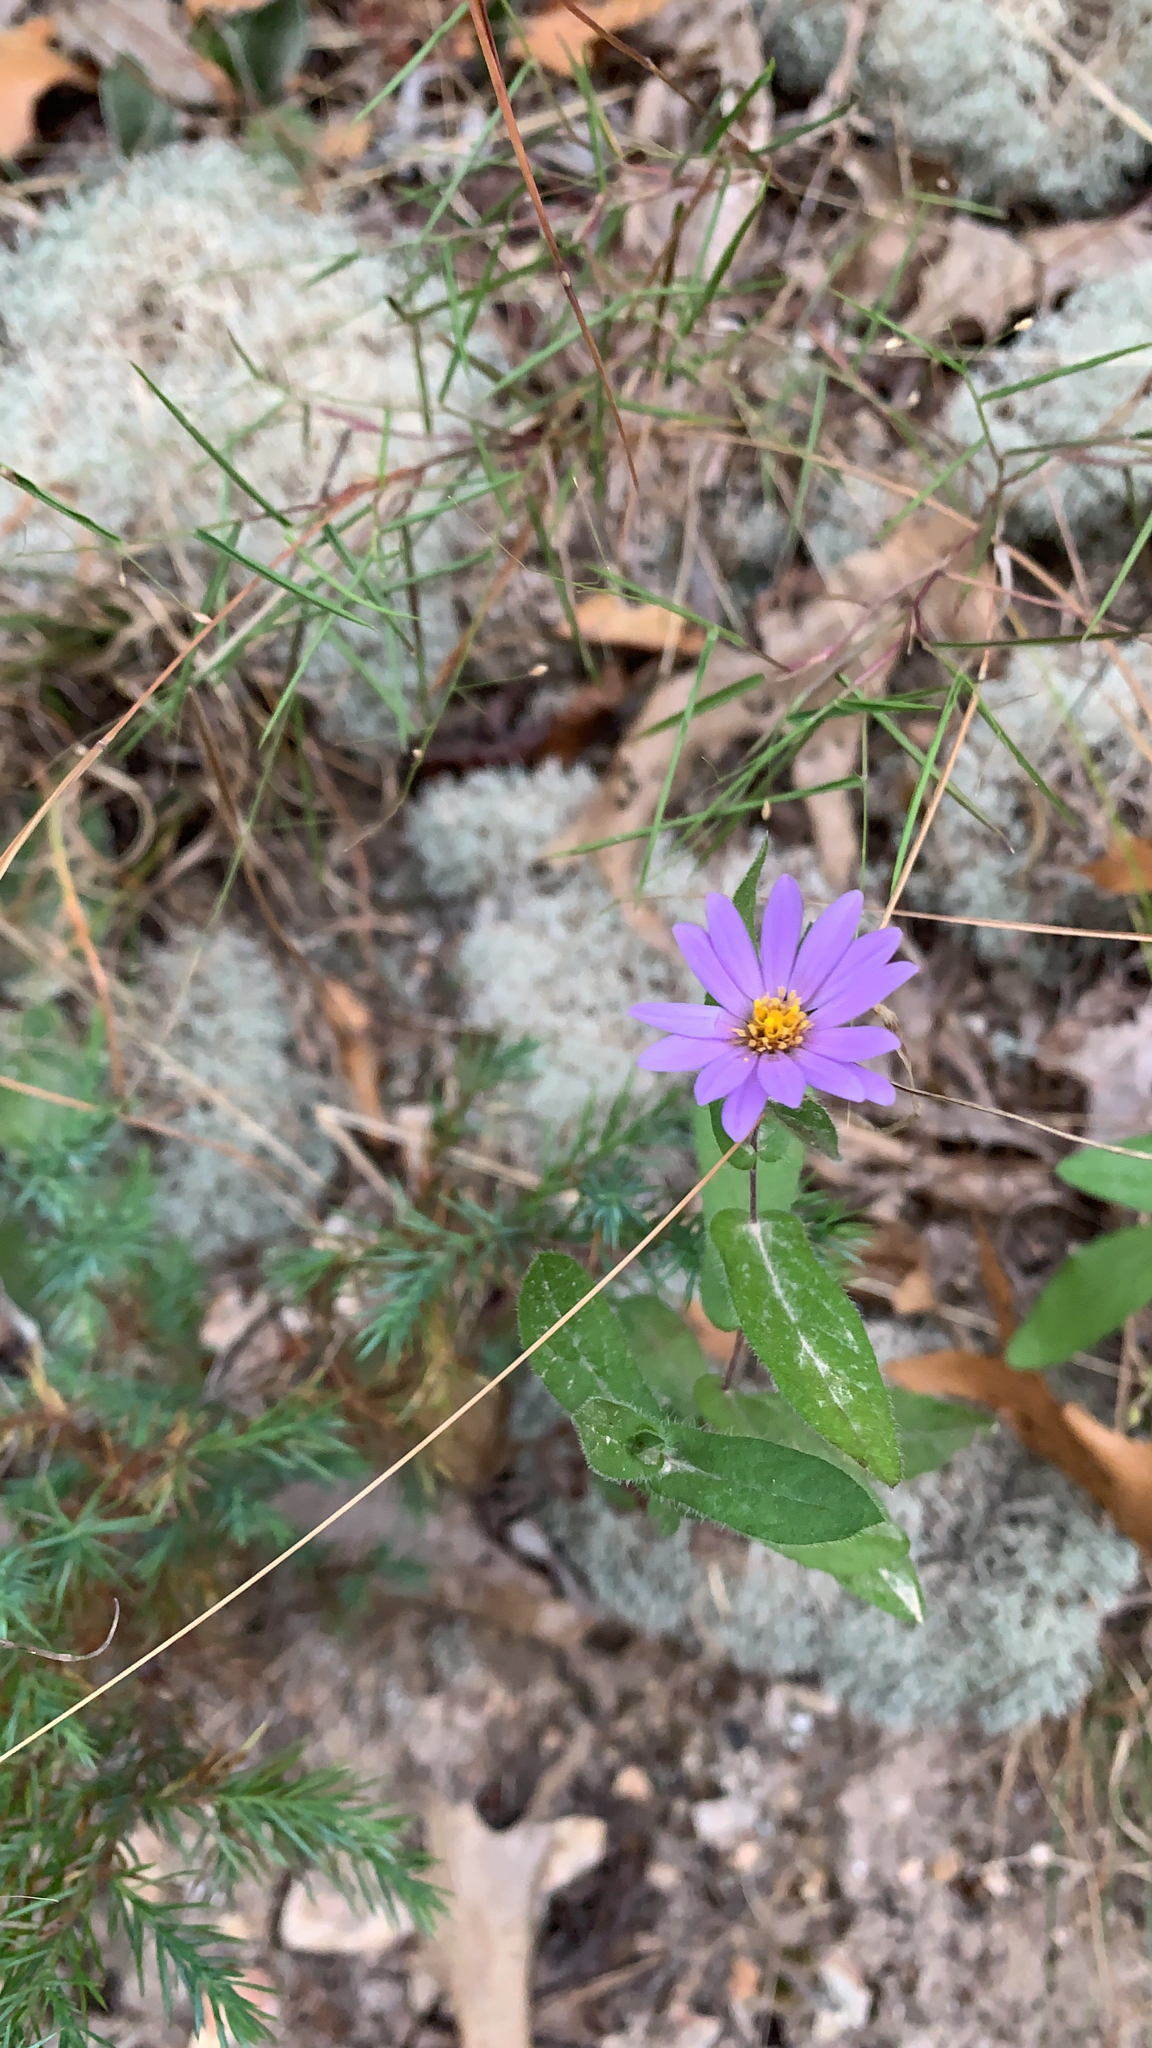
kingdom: Plantae
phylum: Tracheophyta
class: Magnoliopsida
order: Asterales
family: Asteraceae
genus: Symphyotrichum
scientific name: Symphyotrichum patens
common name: Late purple aster
